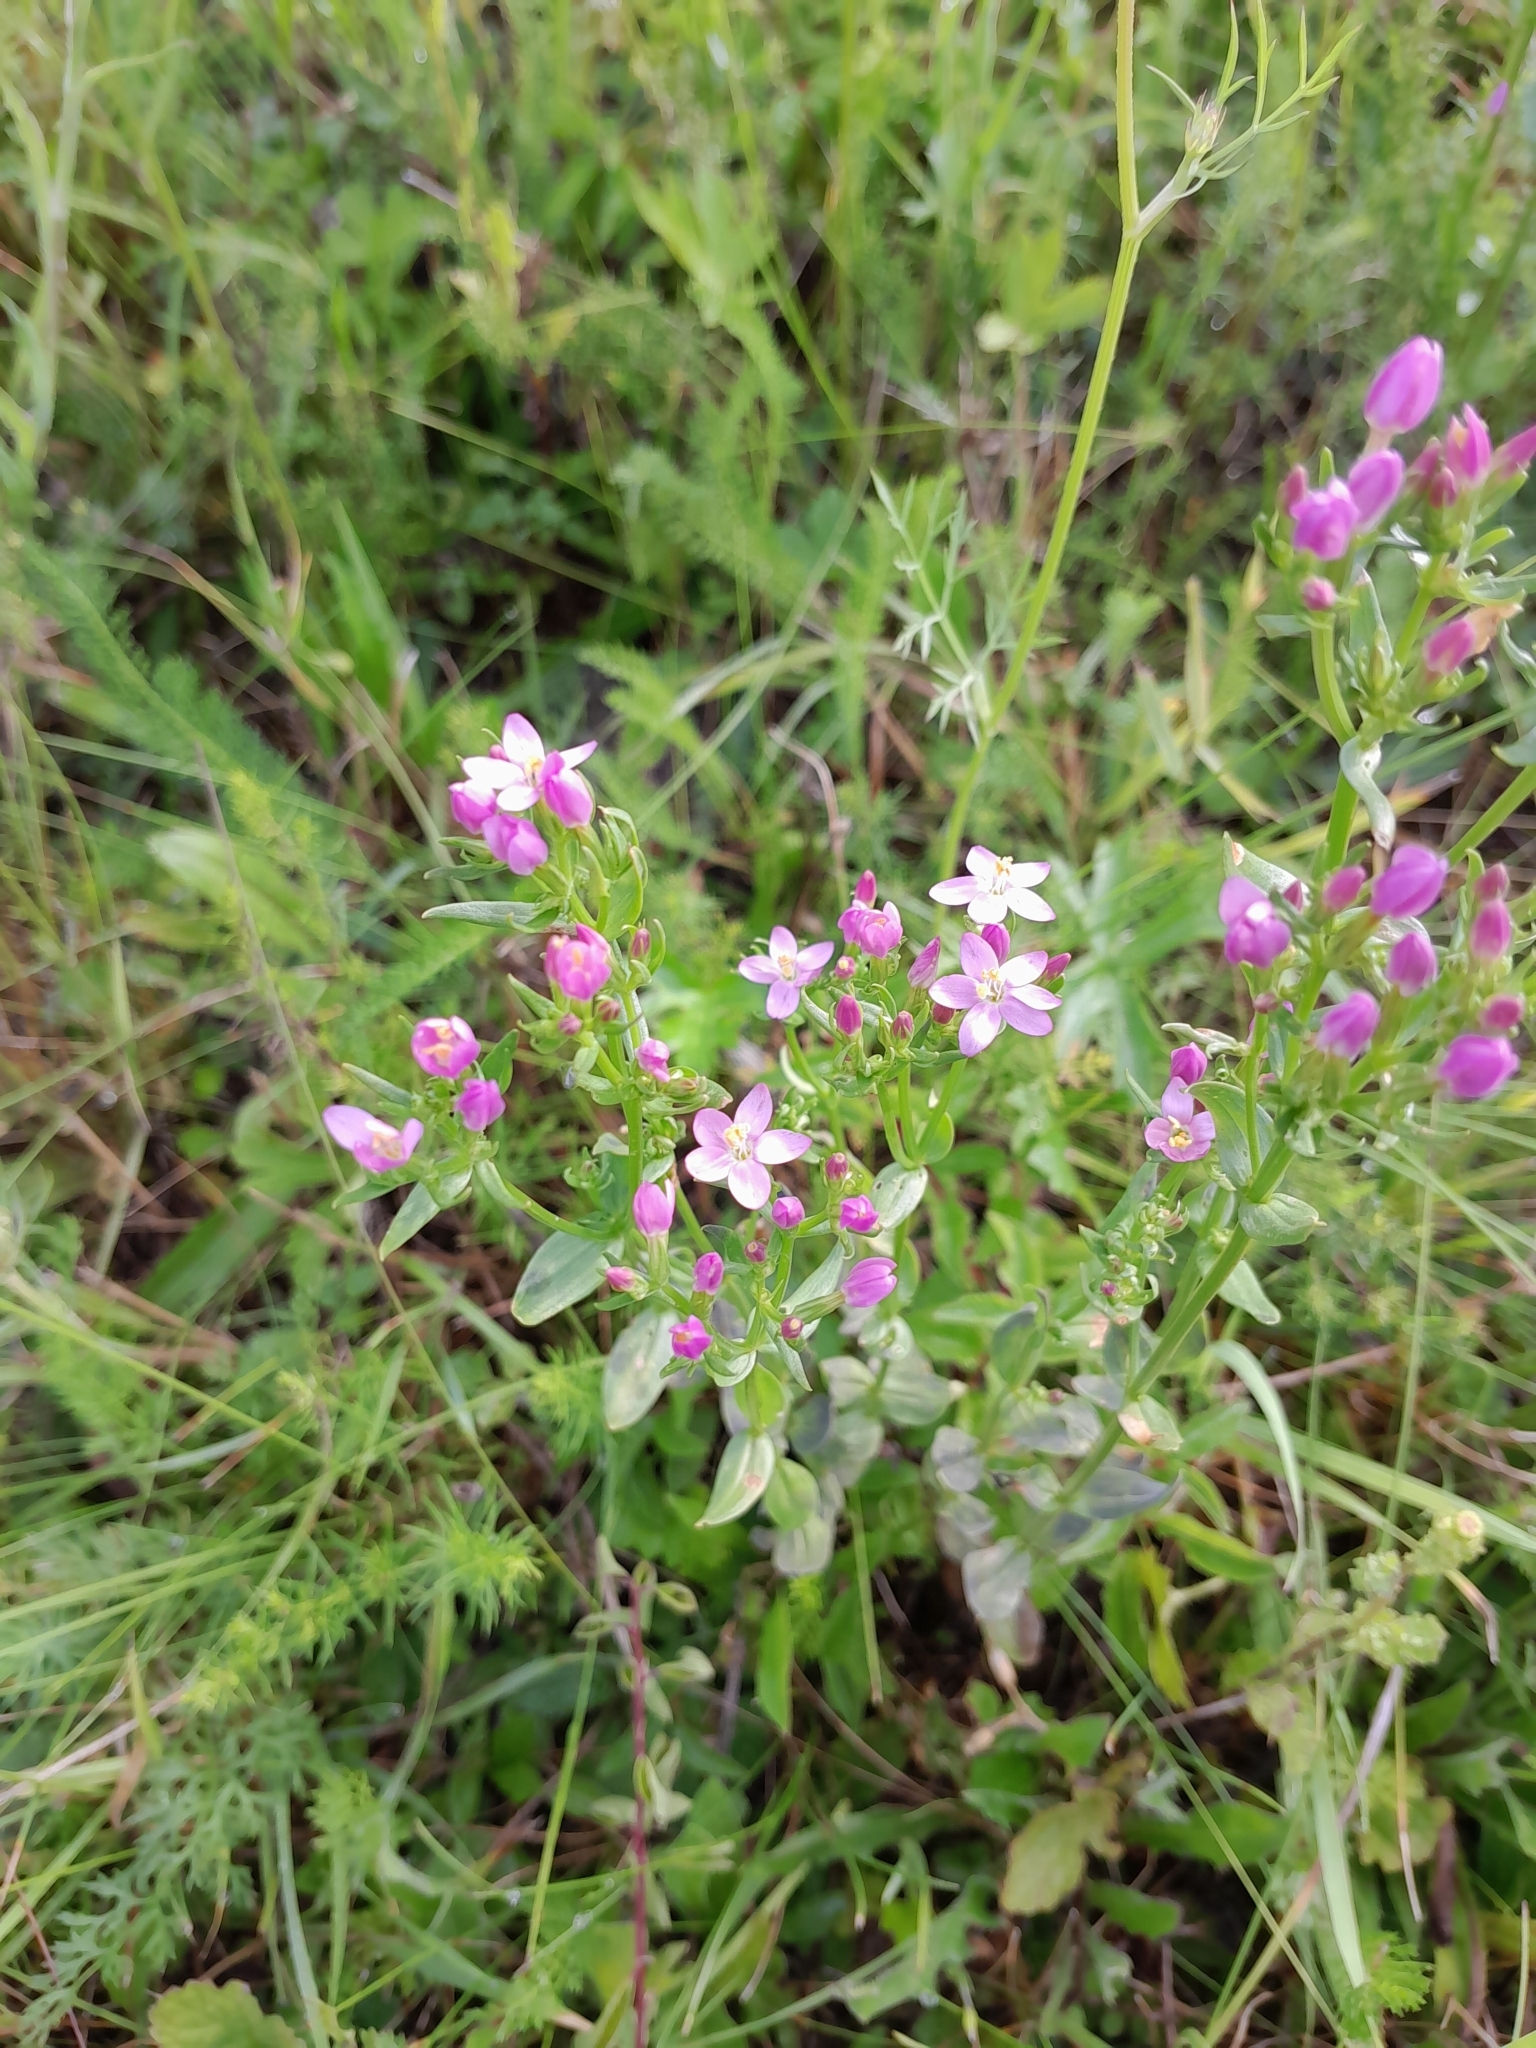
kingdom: Plantae
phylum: Tracheophyta
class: Magnoliopsida
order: Gentianales
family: Gentianaceae
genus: Centaurium
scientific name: Centaurium erythraea
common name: Common centaury
